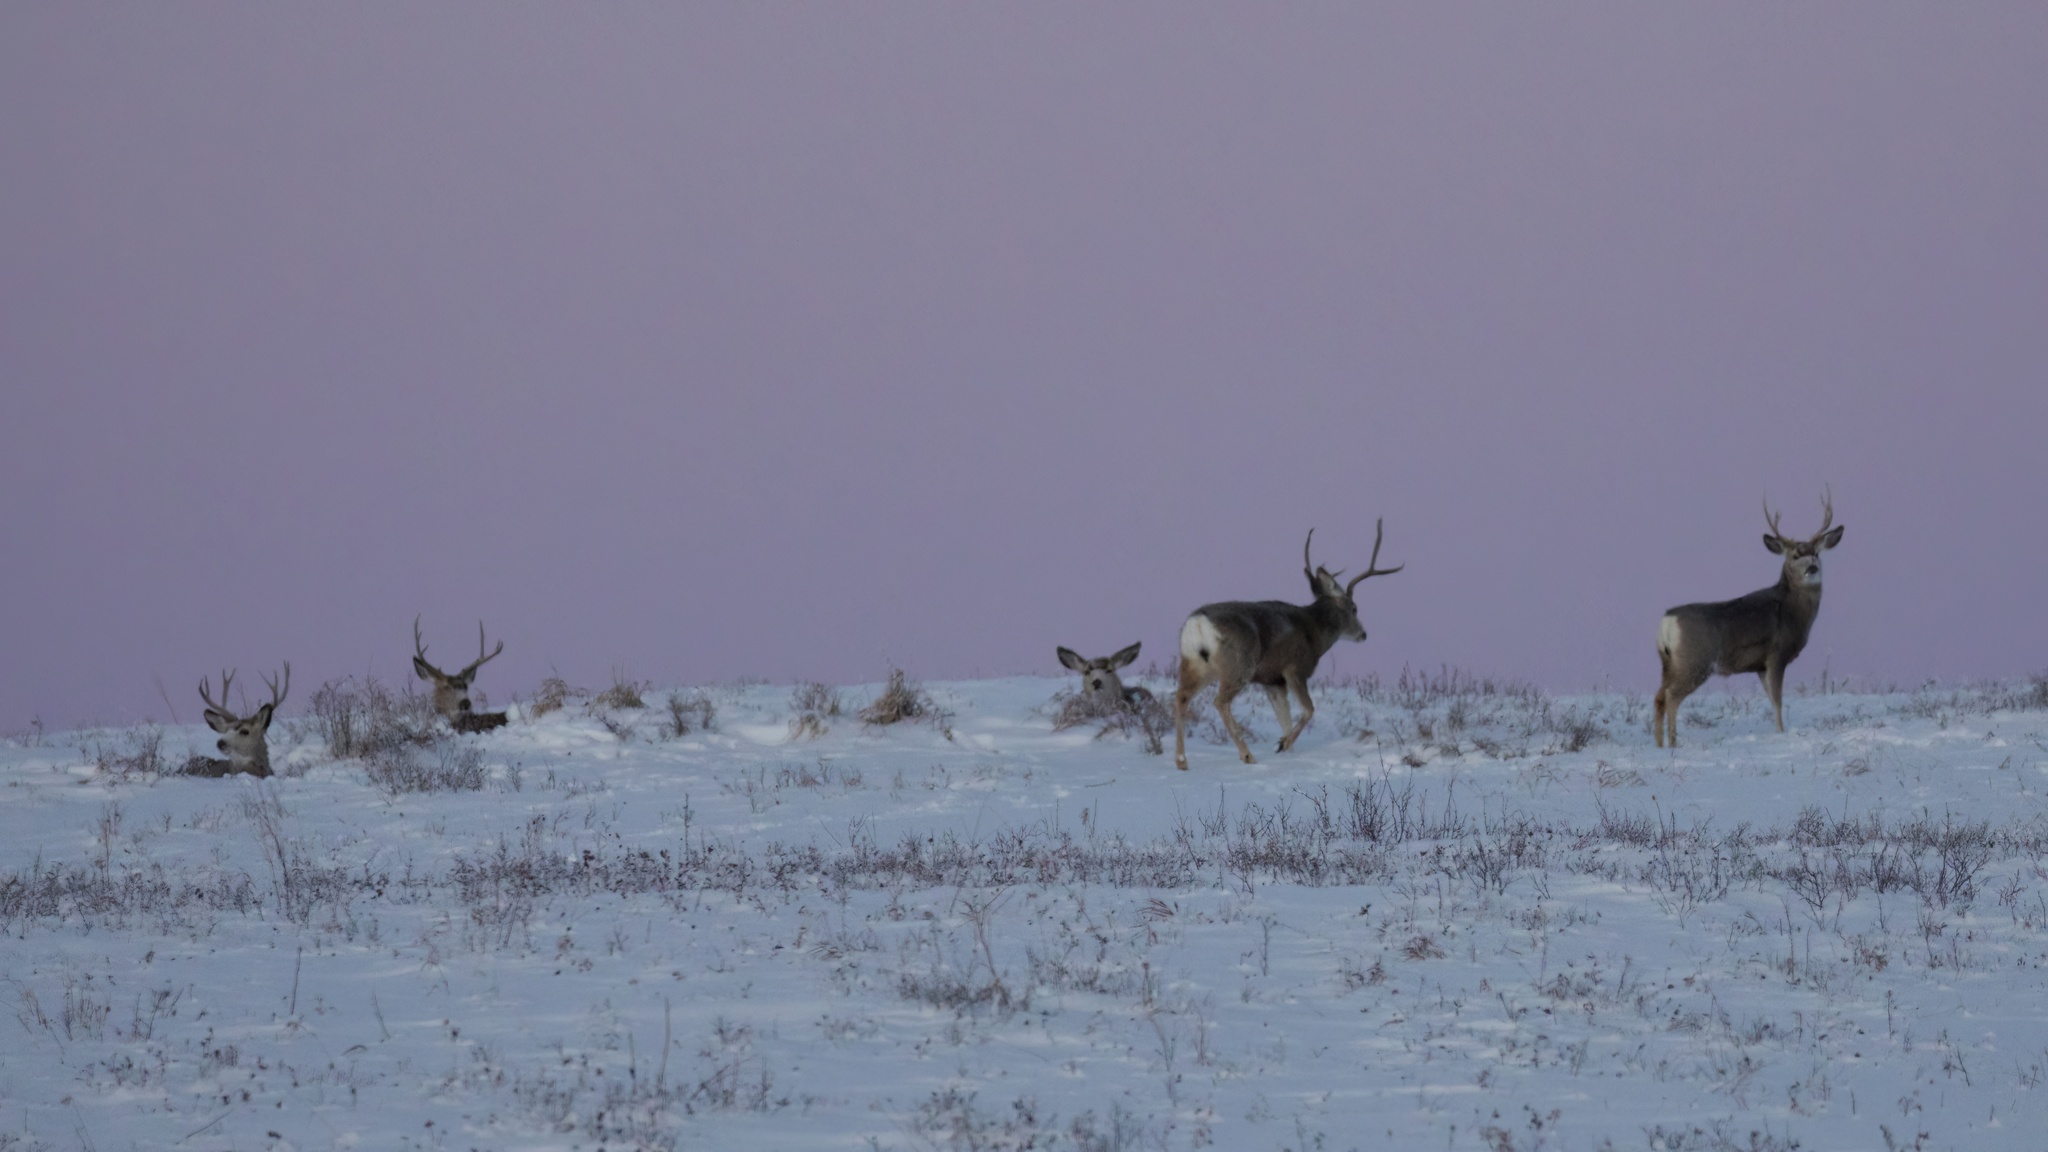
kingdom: Animalia
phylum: Chordata
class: Mammalia
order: Artiodactyla
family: Cervidae
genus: Odocoileus
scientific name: Odocoileus hemionus
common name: Mule deer
